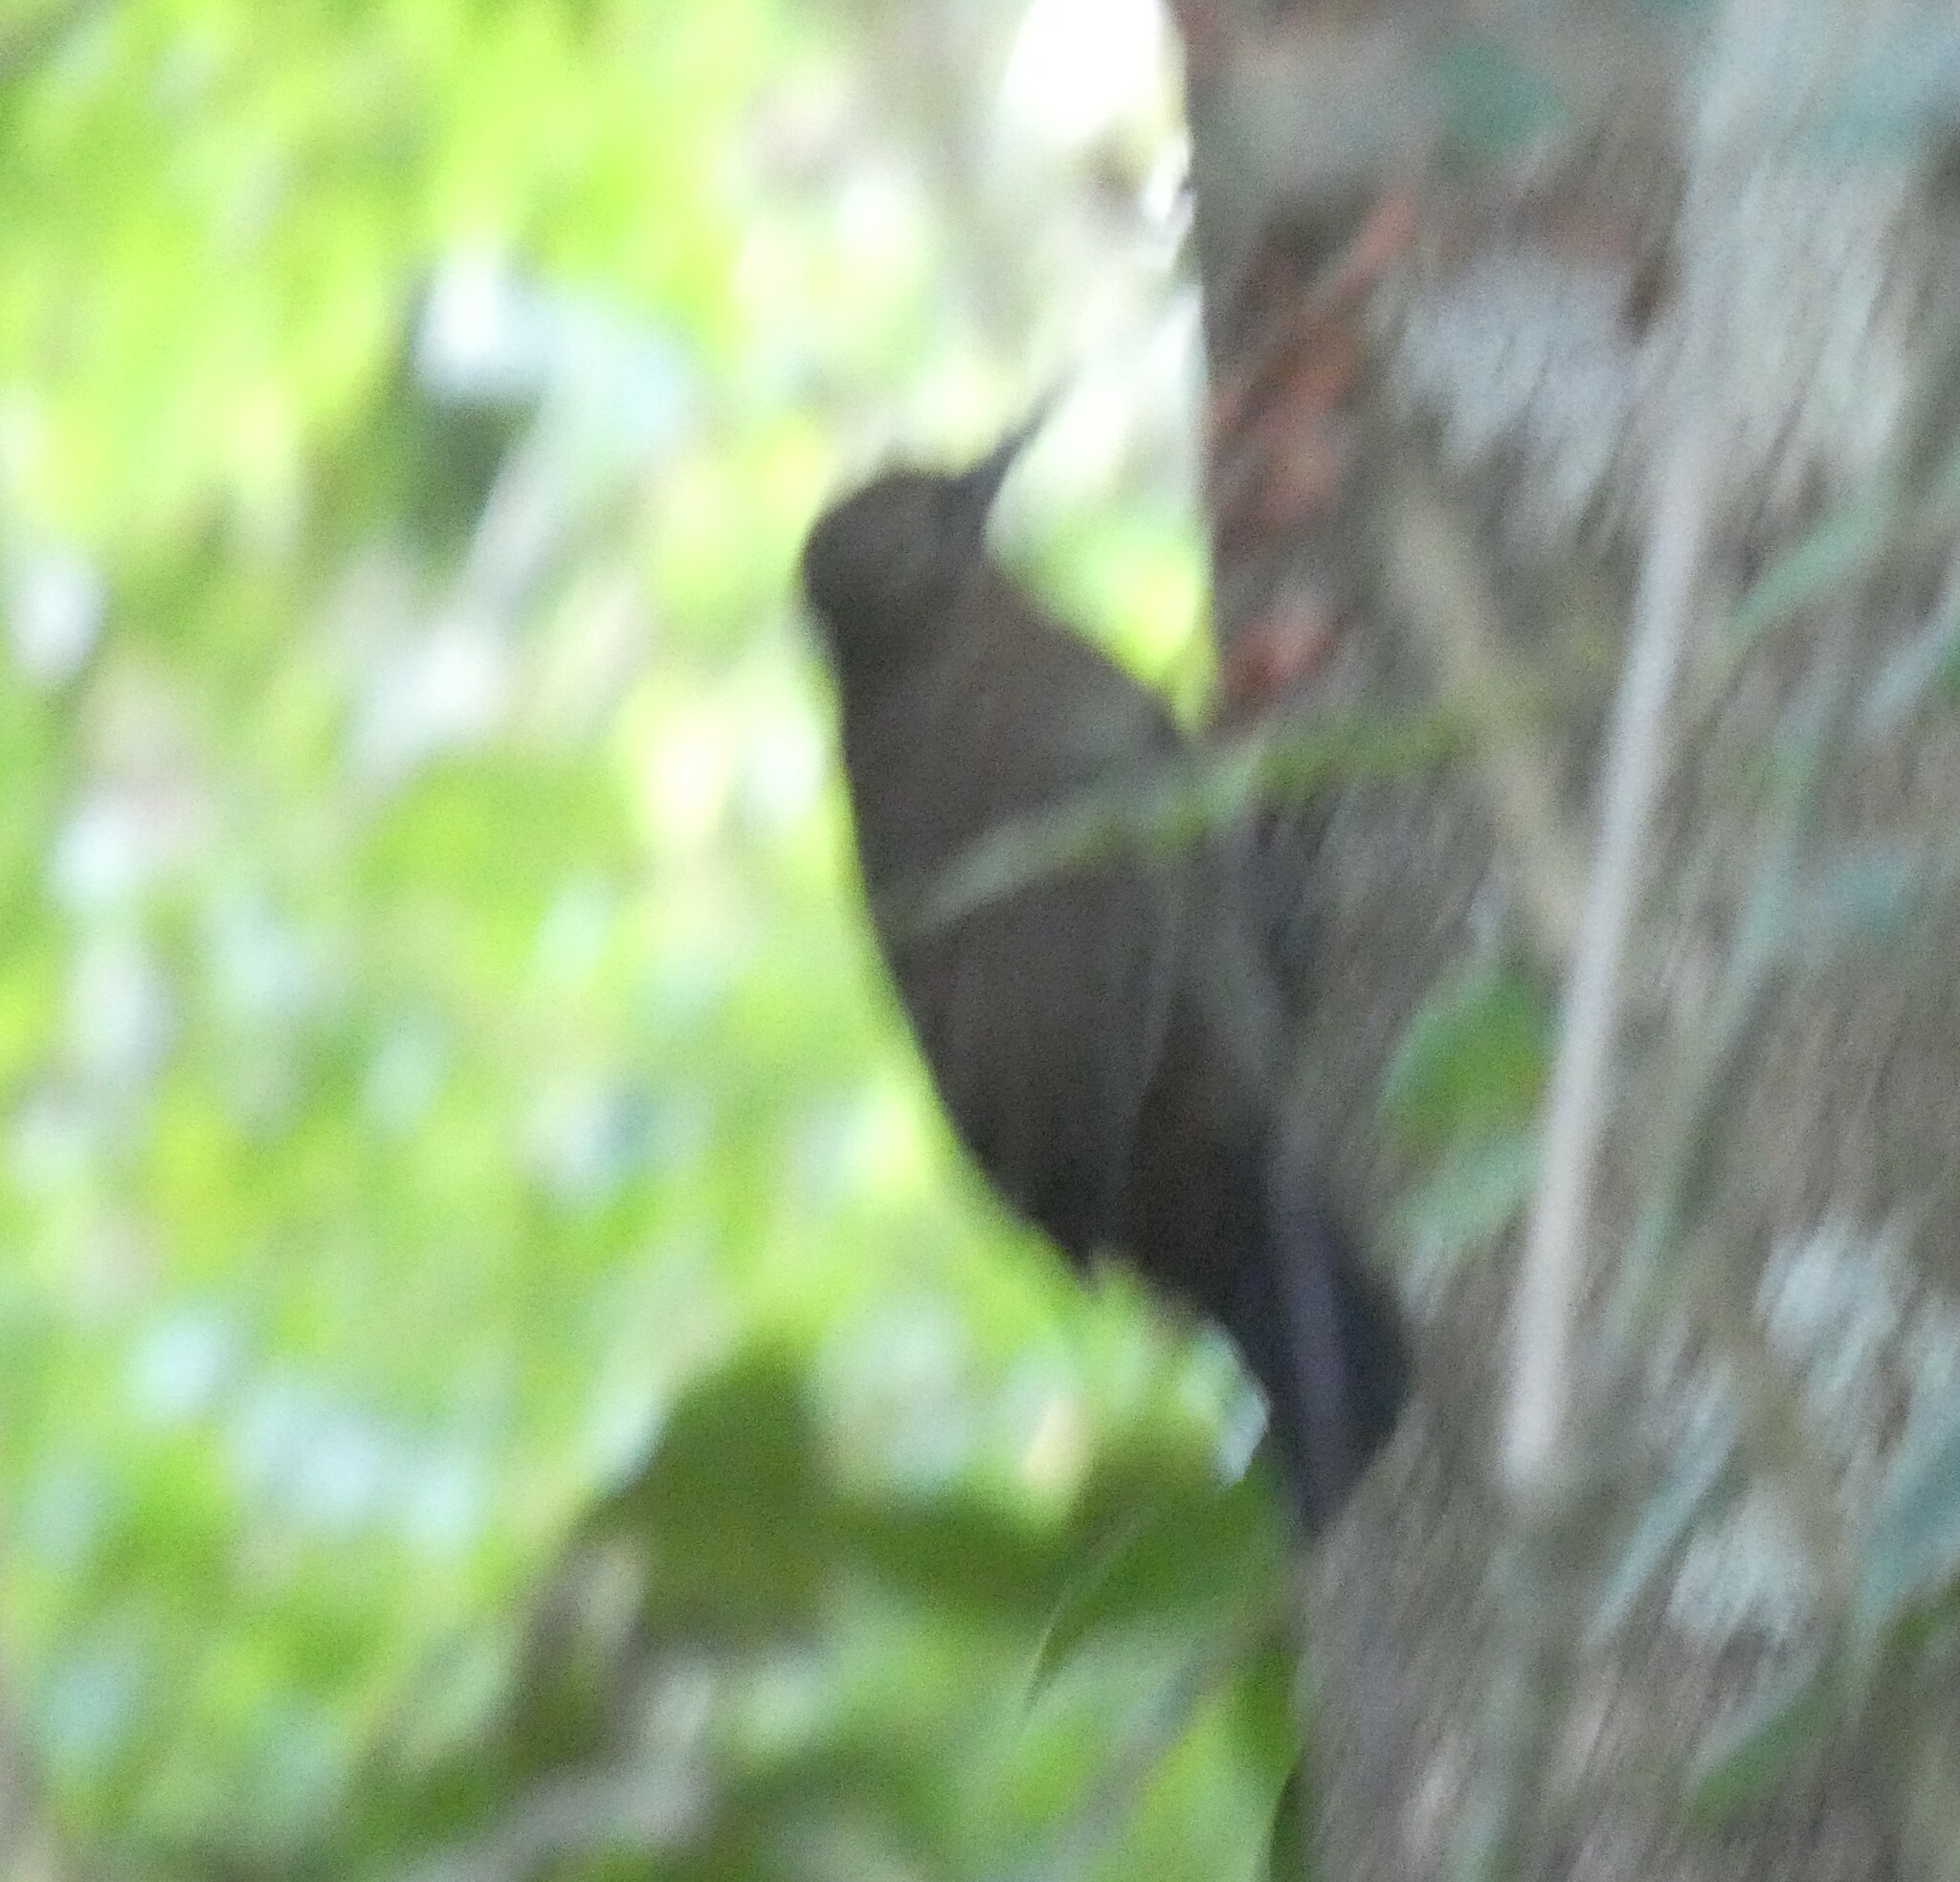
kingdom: Animalia
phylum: Chordata
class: Aves
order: Passeriformes
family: Furnariidae
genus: Sclerurus
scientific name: Sclerurus scansor
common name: Rufous-breasted leaftosser
